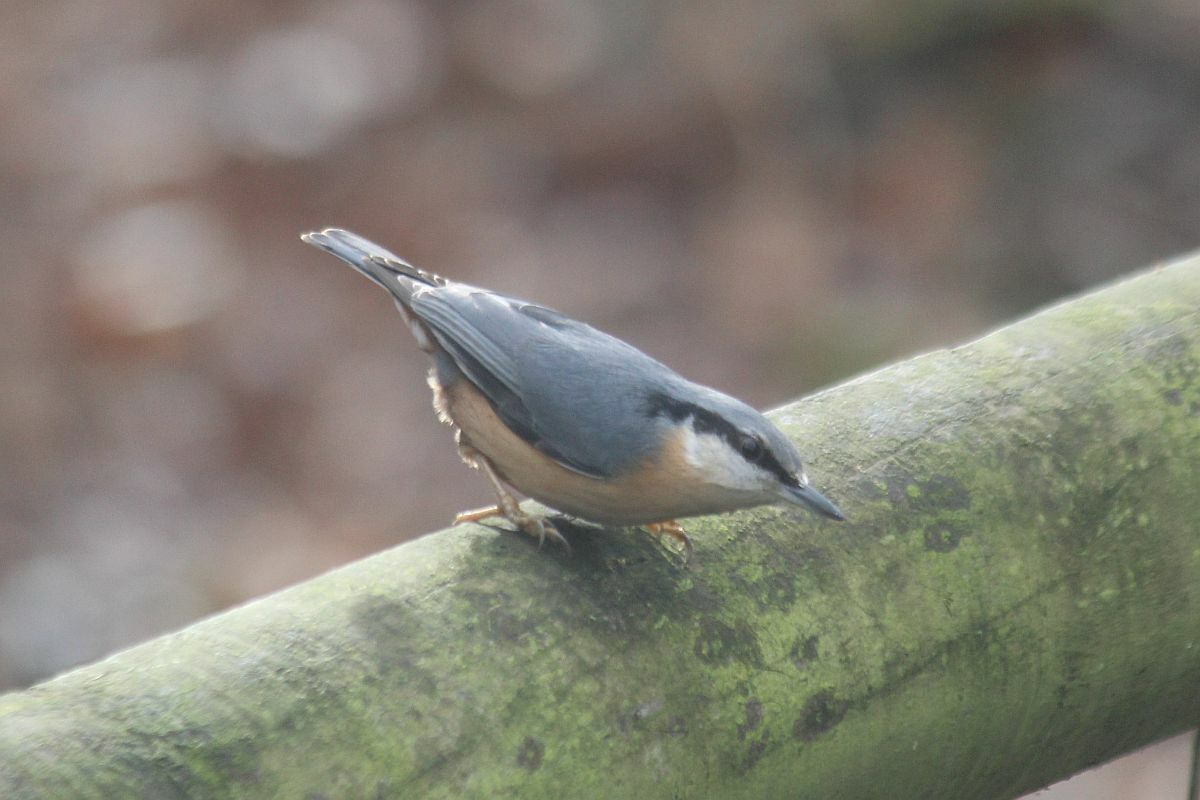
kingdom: Animalia
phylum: Chordata
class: Aves
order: Passeriformes
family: Sittidae
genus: Sitta
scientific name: Sitta europaea
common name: Eurasian nuthatch
